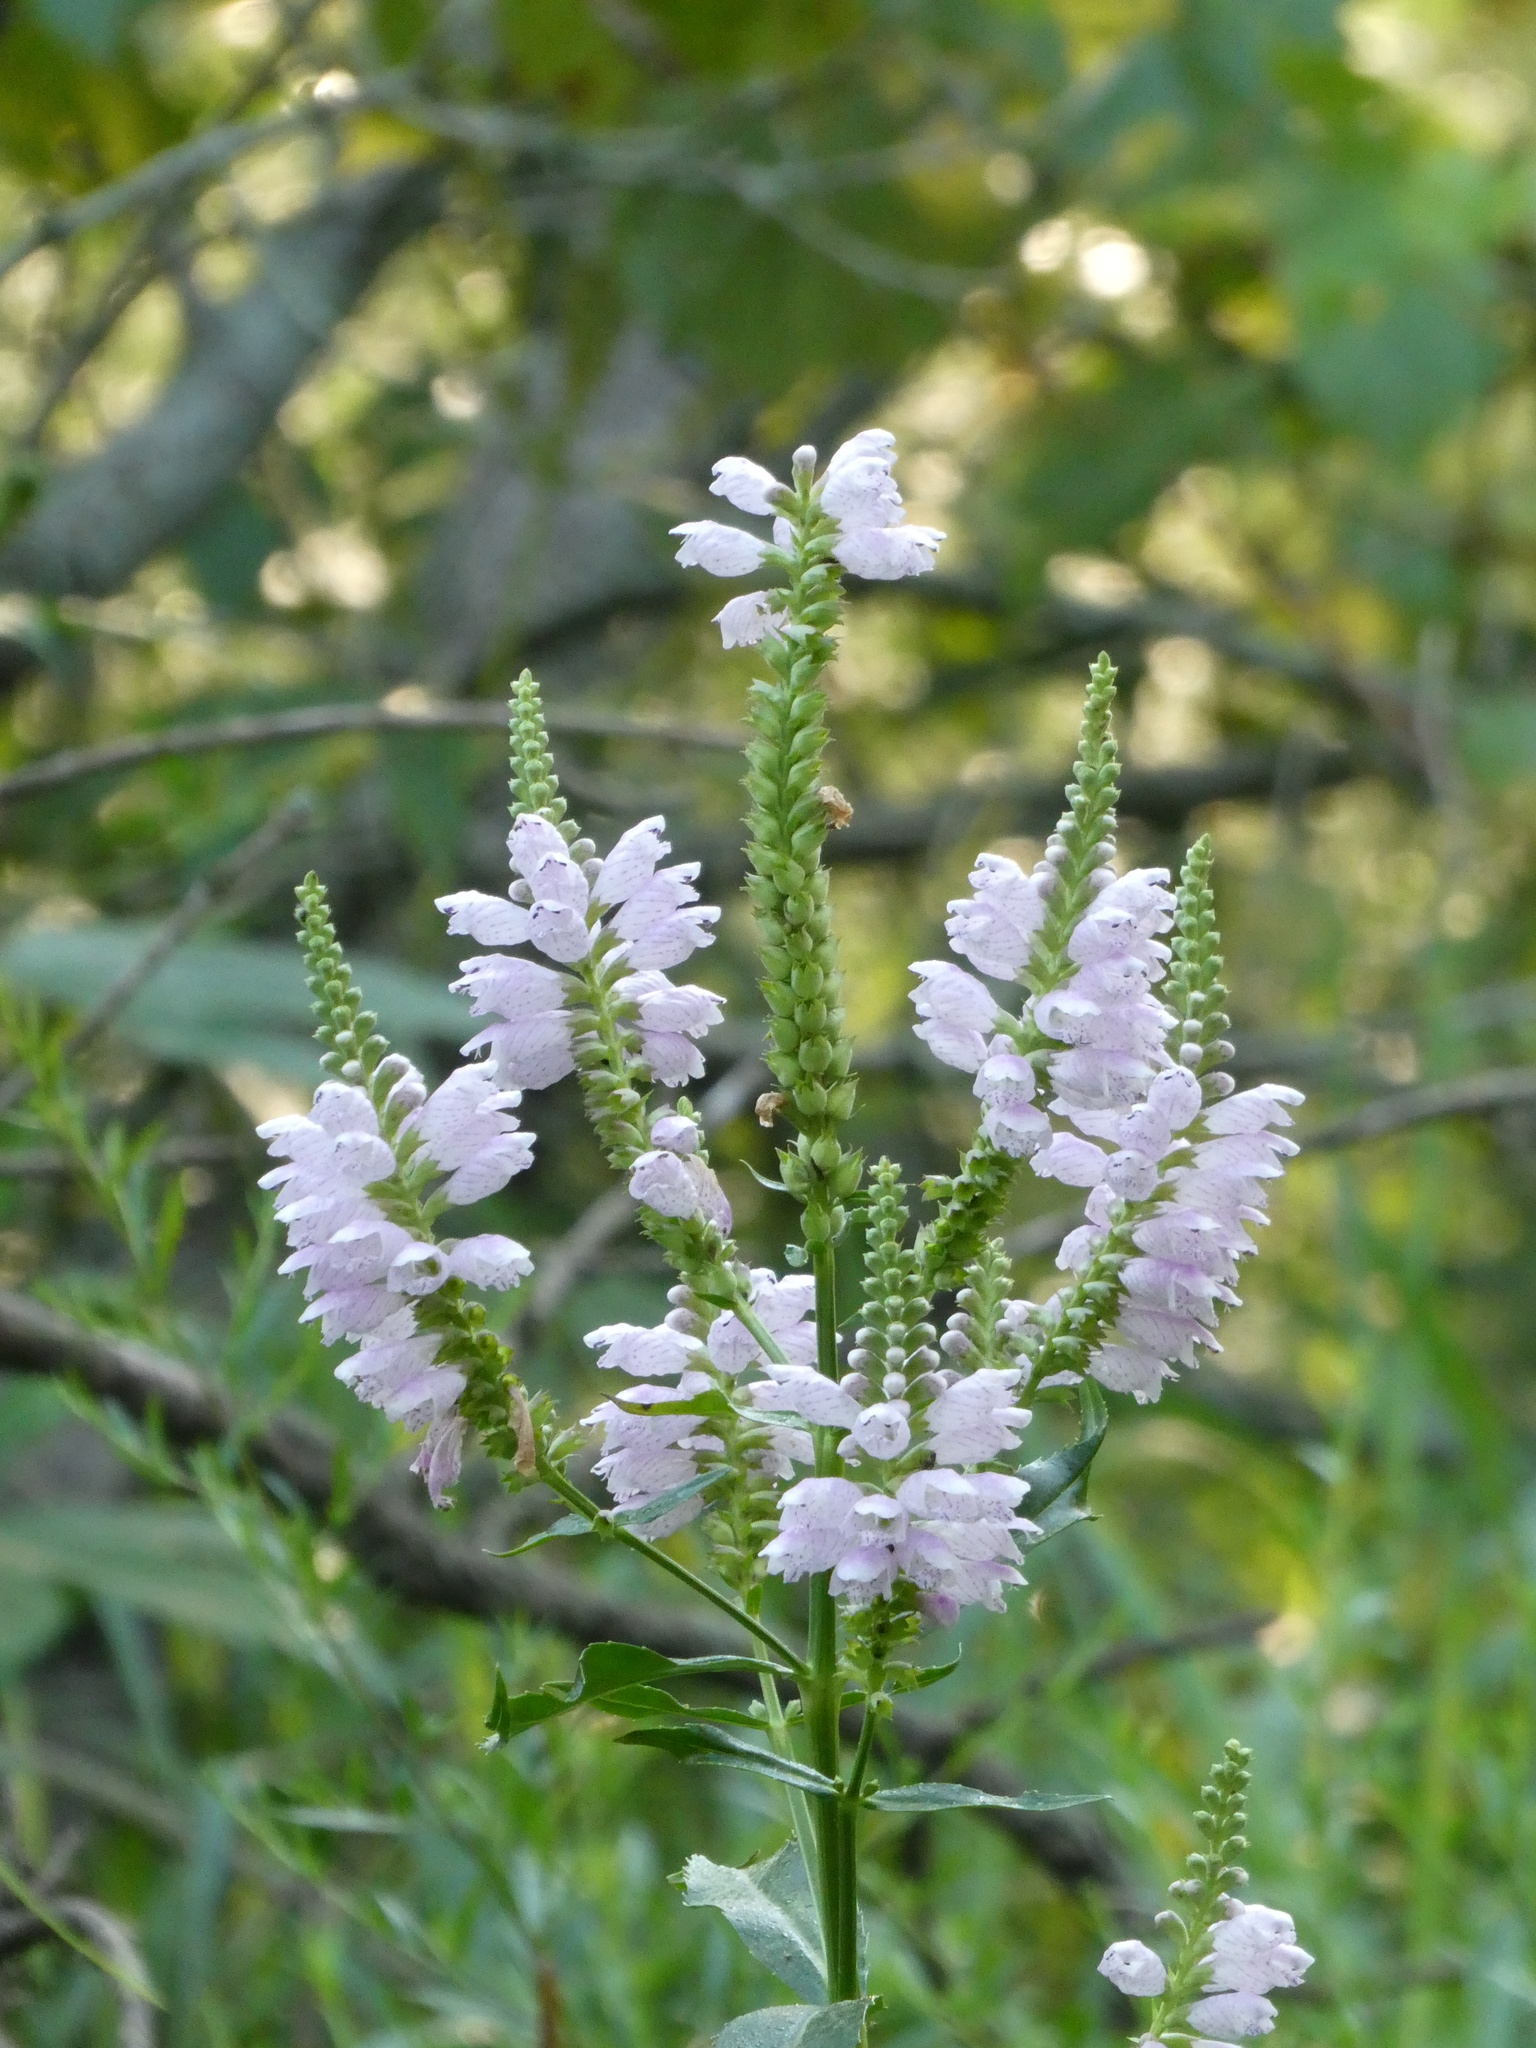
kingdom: Plantae
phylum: Tracheophyta
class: Magnoliopsida
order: Lamiales
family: Lamiaceae
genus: Physostegia
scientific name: Physostegia virginiana
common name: Obedient-plant
